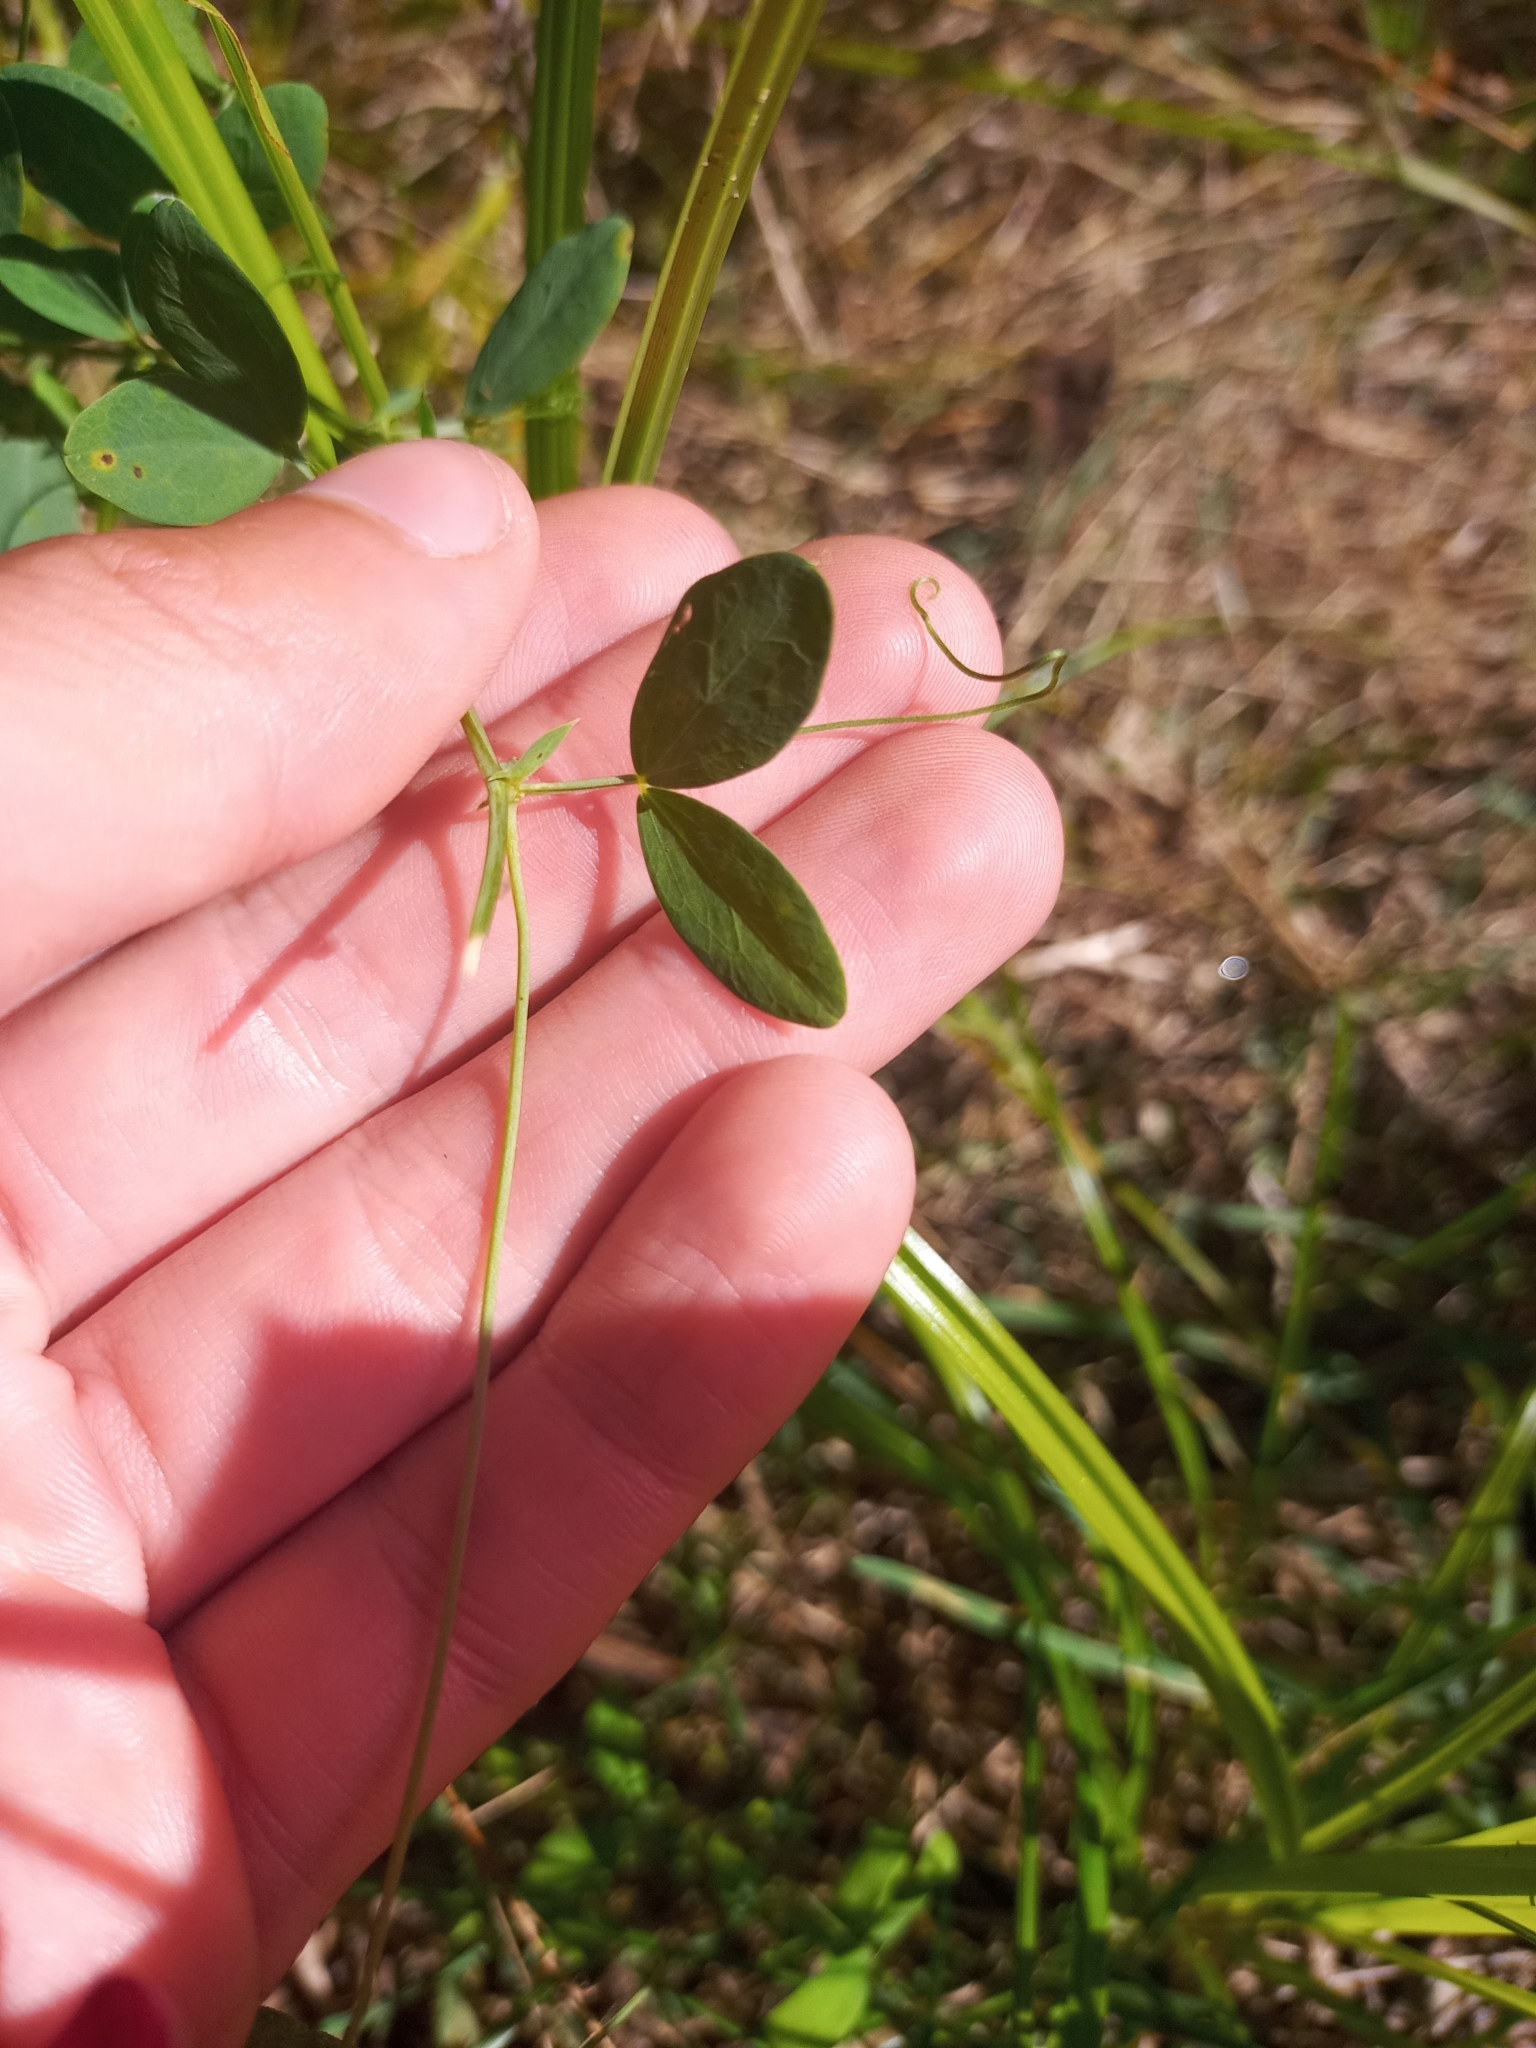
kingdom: Plantae
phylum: Tracheophyta
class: Magnoliopsida
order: Fabales
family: Fabaceae
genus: Lathyrus
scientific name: Lathyrus tuberosus
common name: Tuberous pea
